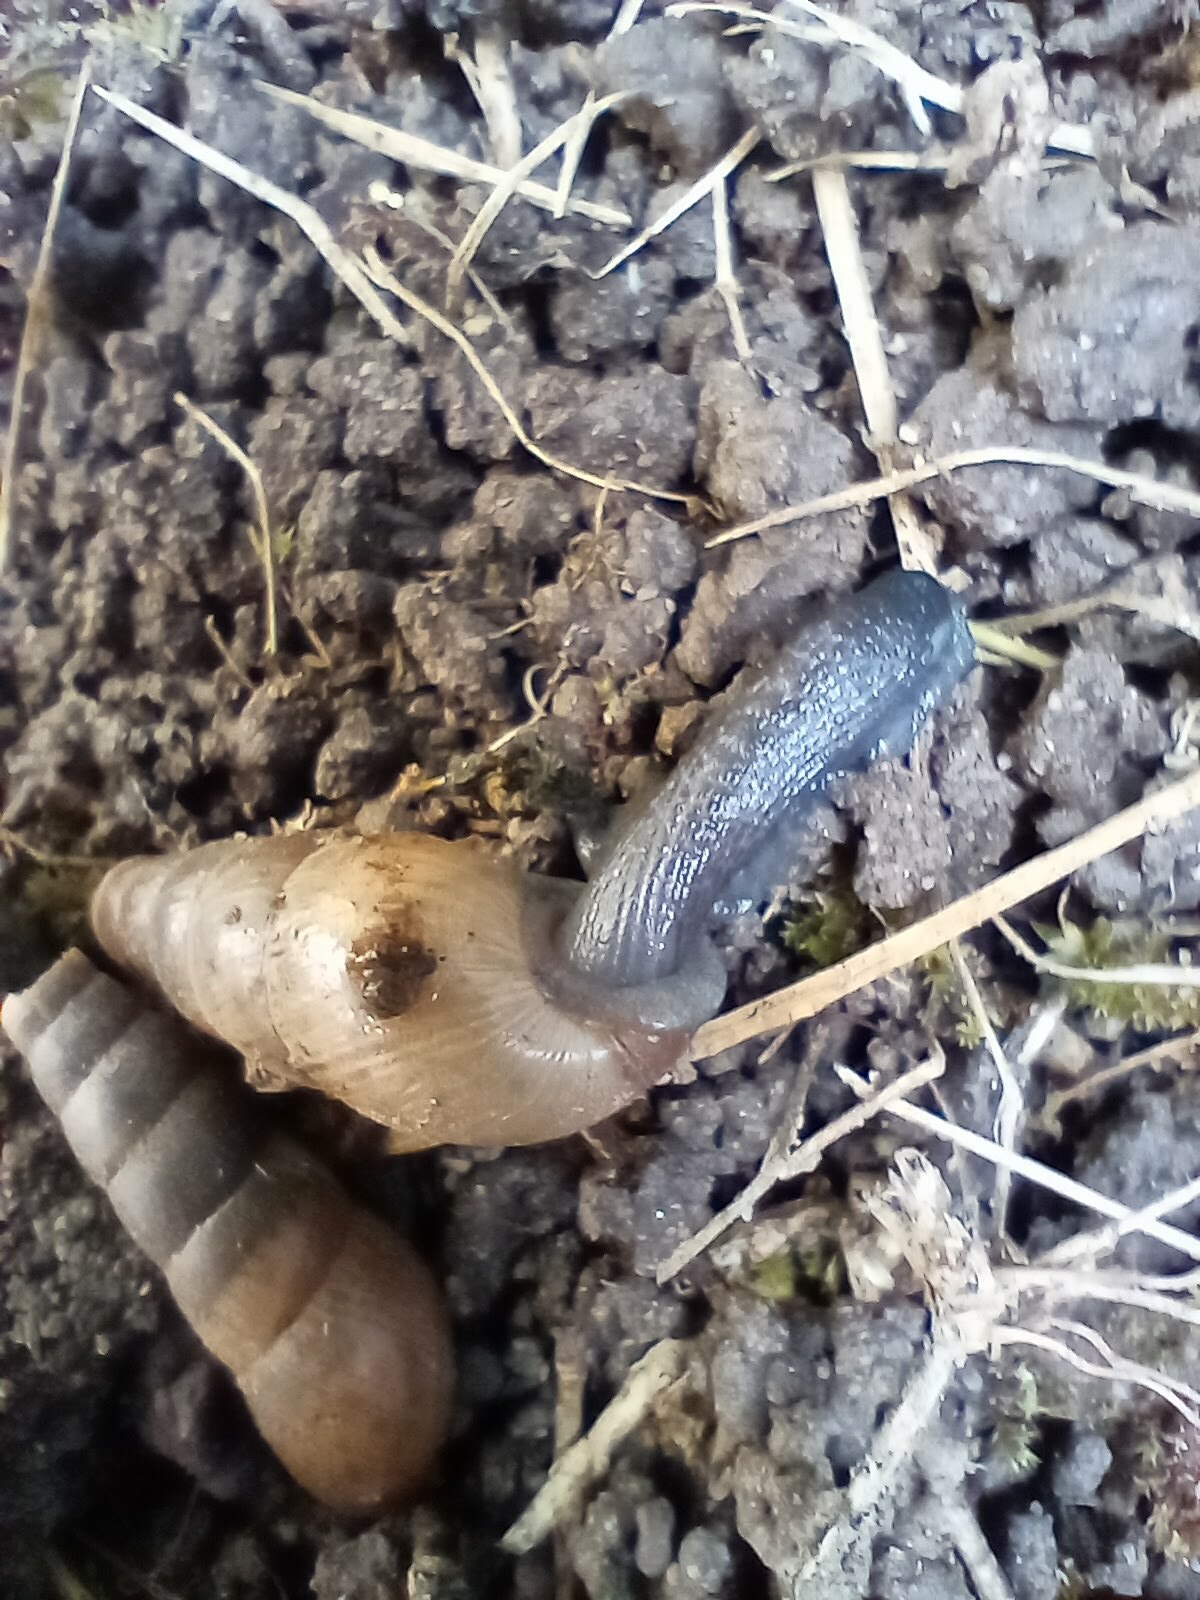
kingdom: Animalia
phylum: Mollusca
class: Gastropoda
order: Stylommatophora
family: Achatinidae
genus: Rumina
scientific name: Rumina decollata
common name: Decollate snail
